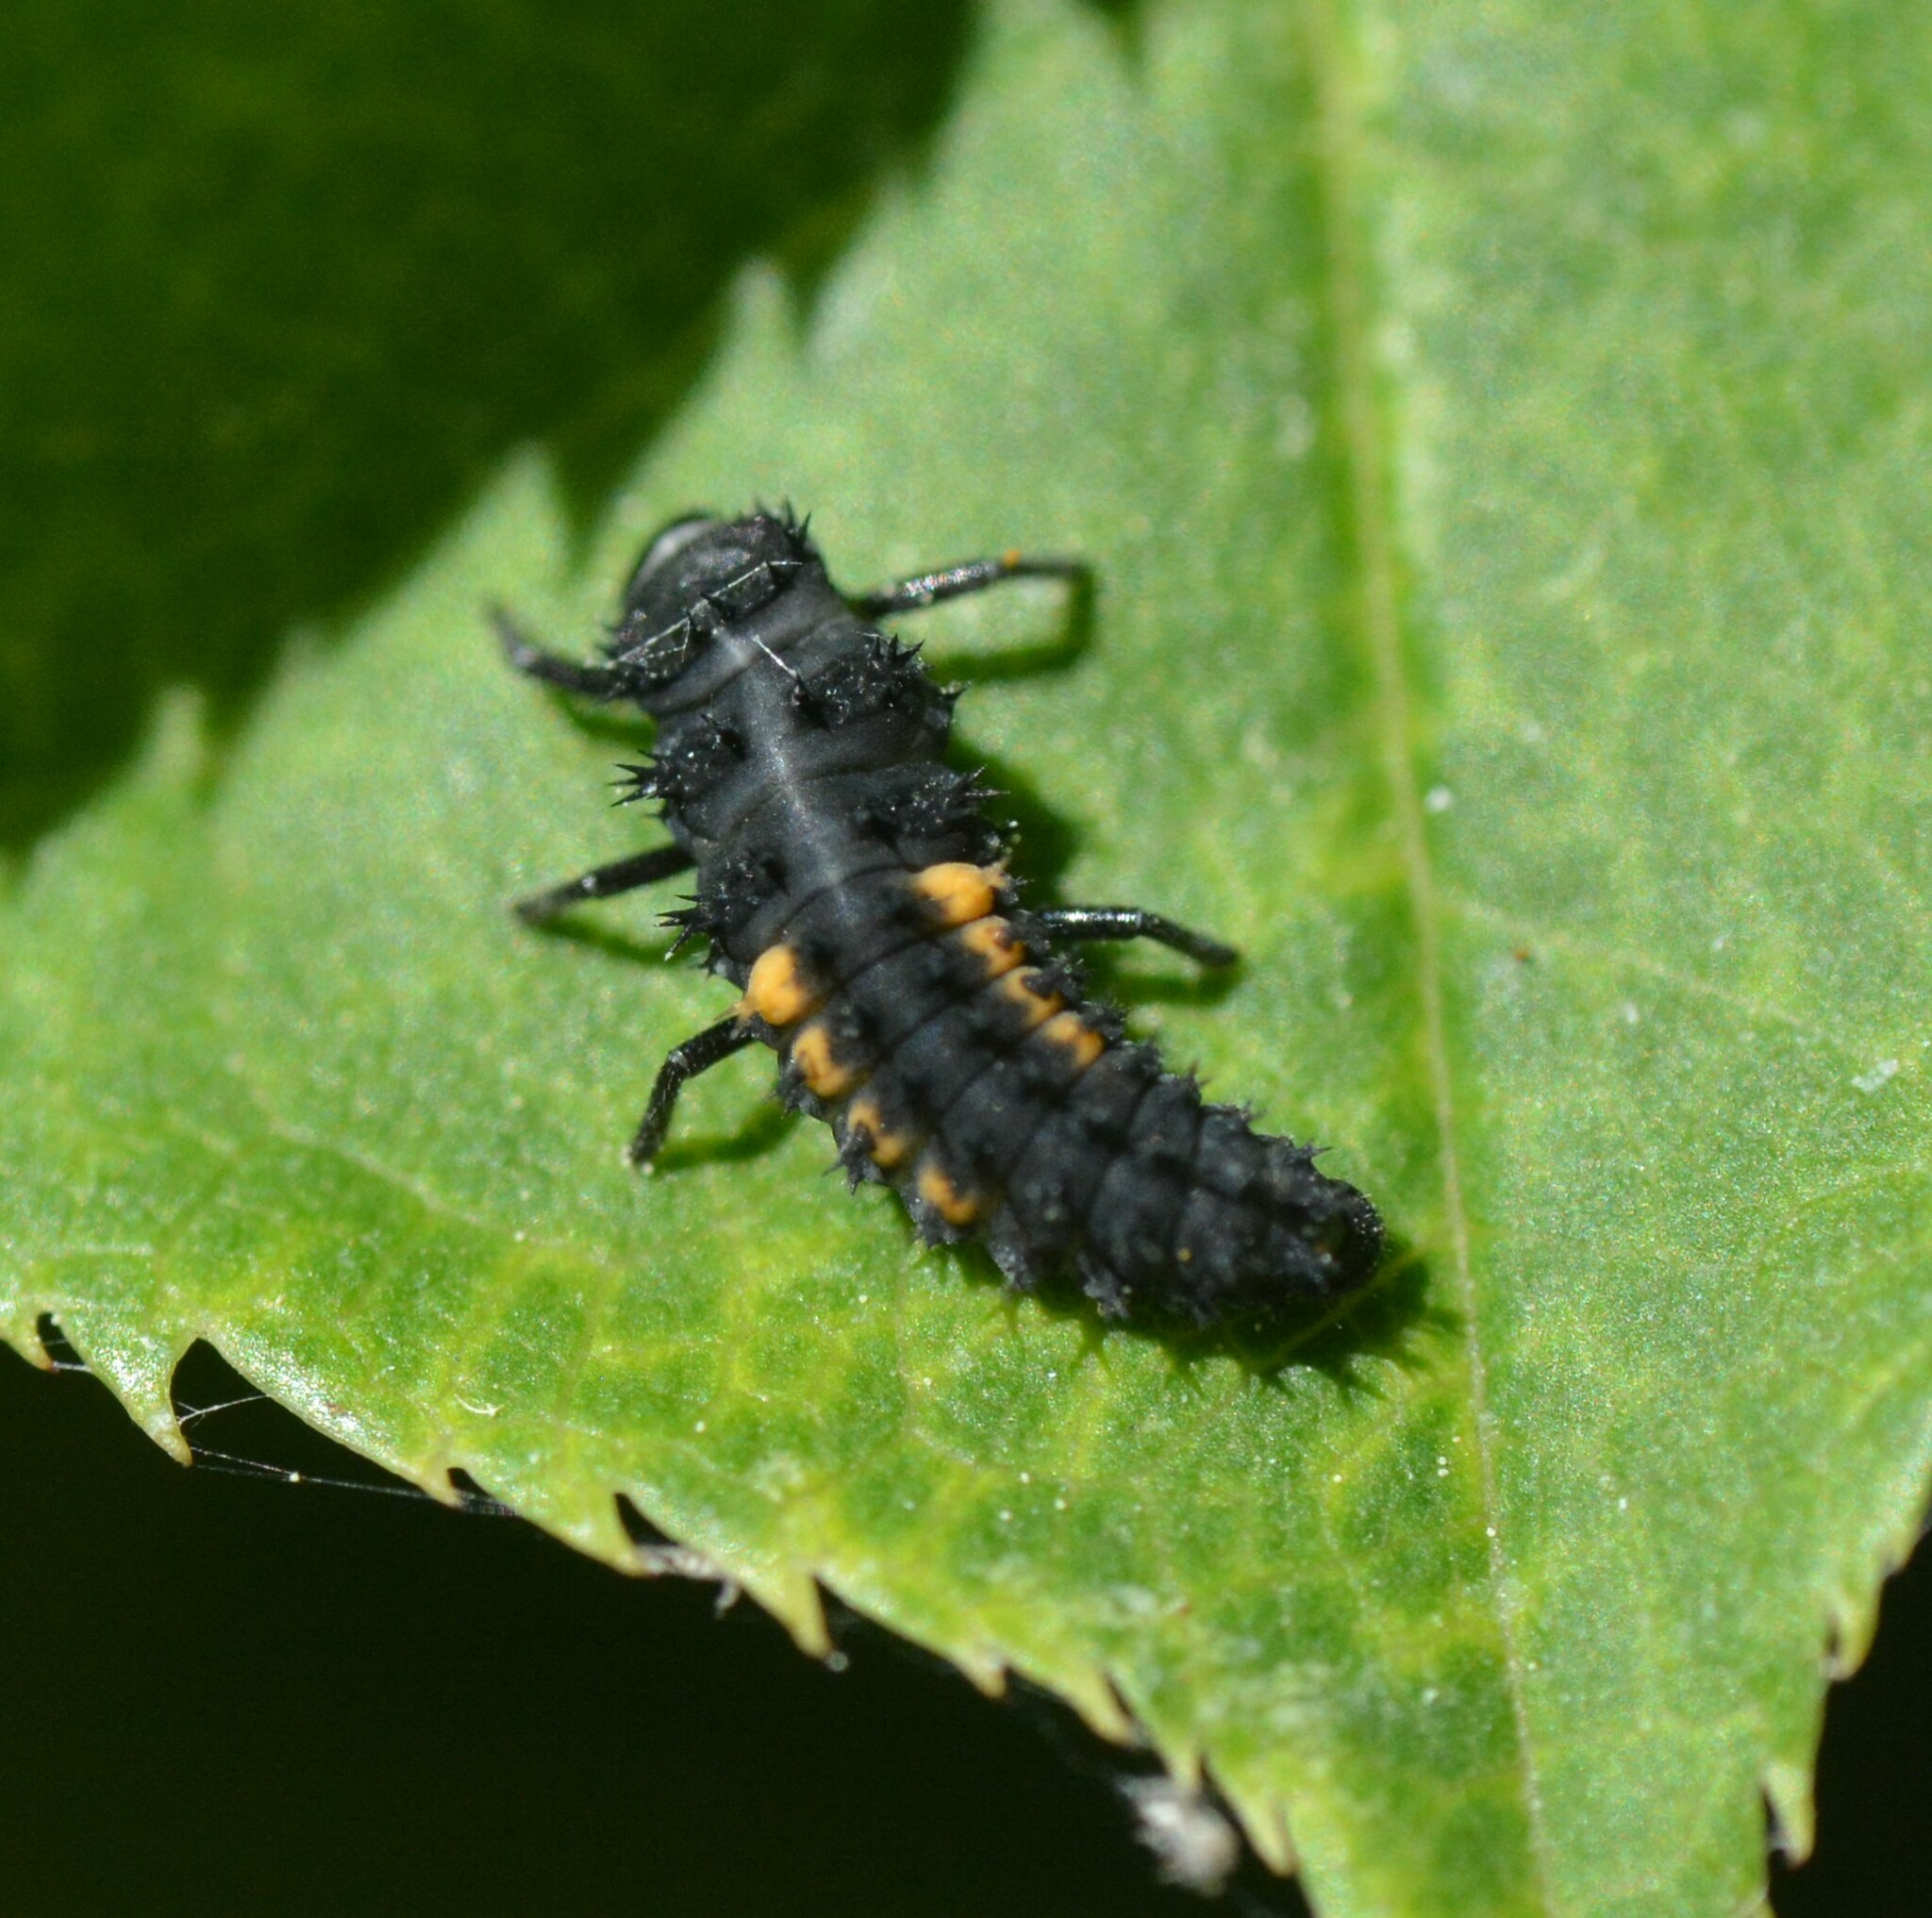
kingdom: Animalia
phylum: Arthropoda
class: Insecta
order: Coleoptera
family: Coccinellidae
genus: Harmonia
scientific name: Harmonia axyridis
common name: Harlequin ladybird
